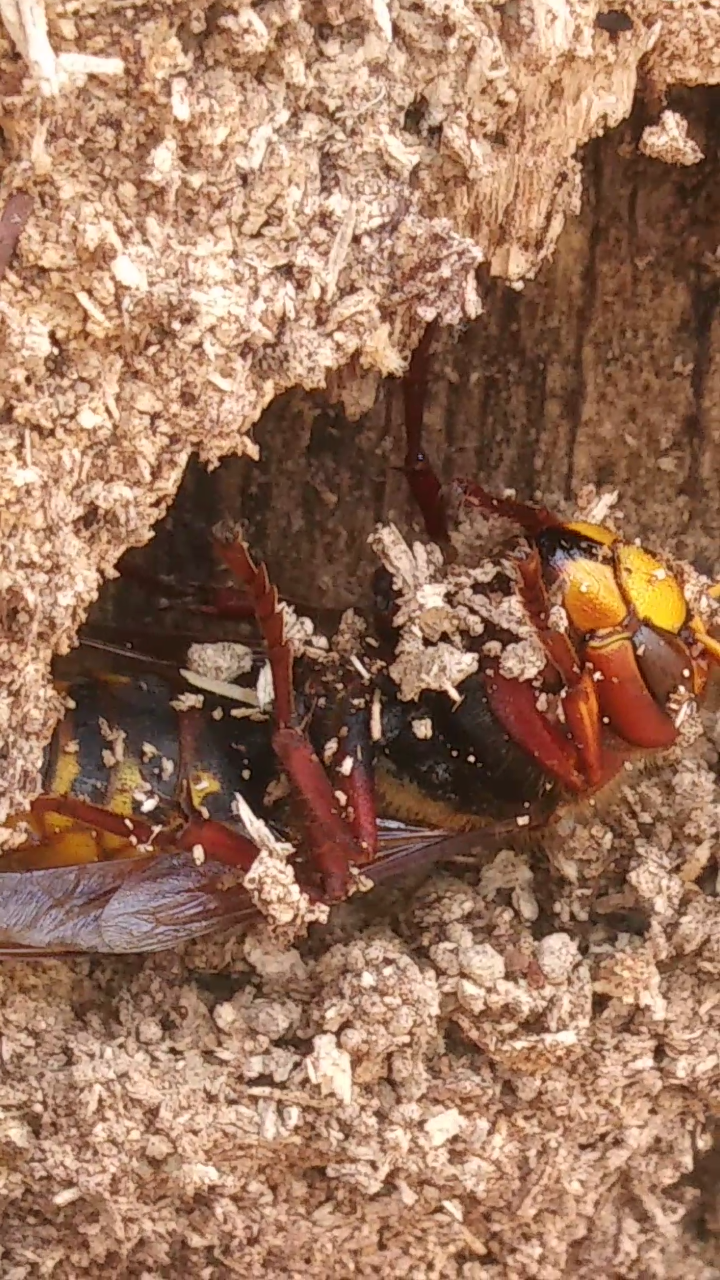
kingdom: Animalia
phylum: Arthropoda
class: Insecta
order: Hymenoptera
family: Vespidae
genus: Vespa
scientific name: Vespa crabro
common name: Hornet
